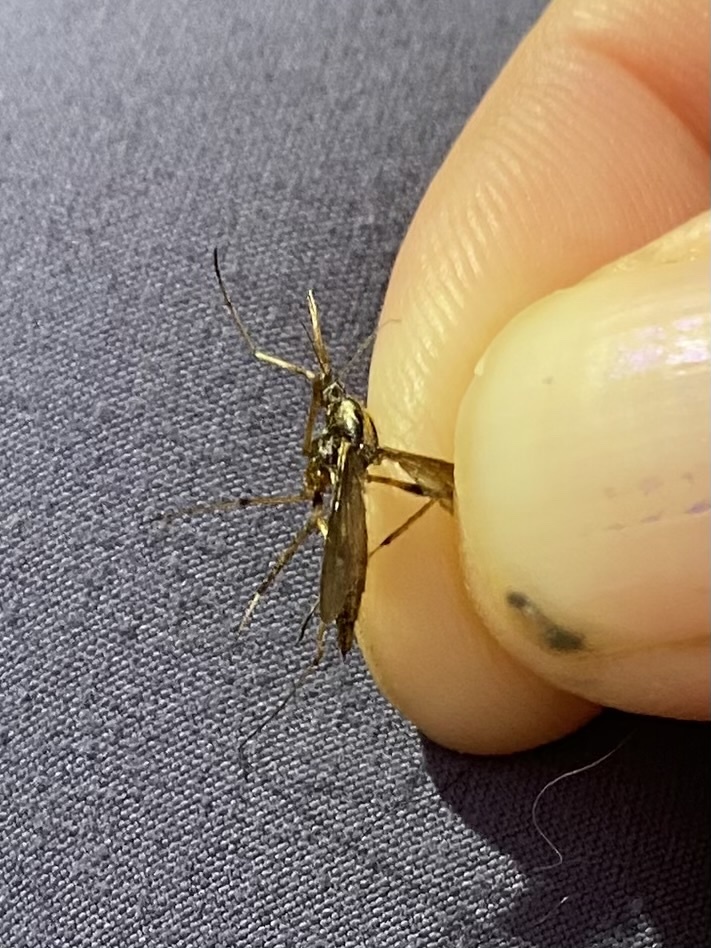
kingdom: Animalia
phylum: Arthropoda
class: Insecta
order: Diptera
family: Culicidae
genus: Toxorhynchites
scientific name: Toxorhynchites rutilus
